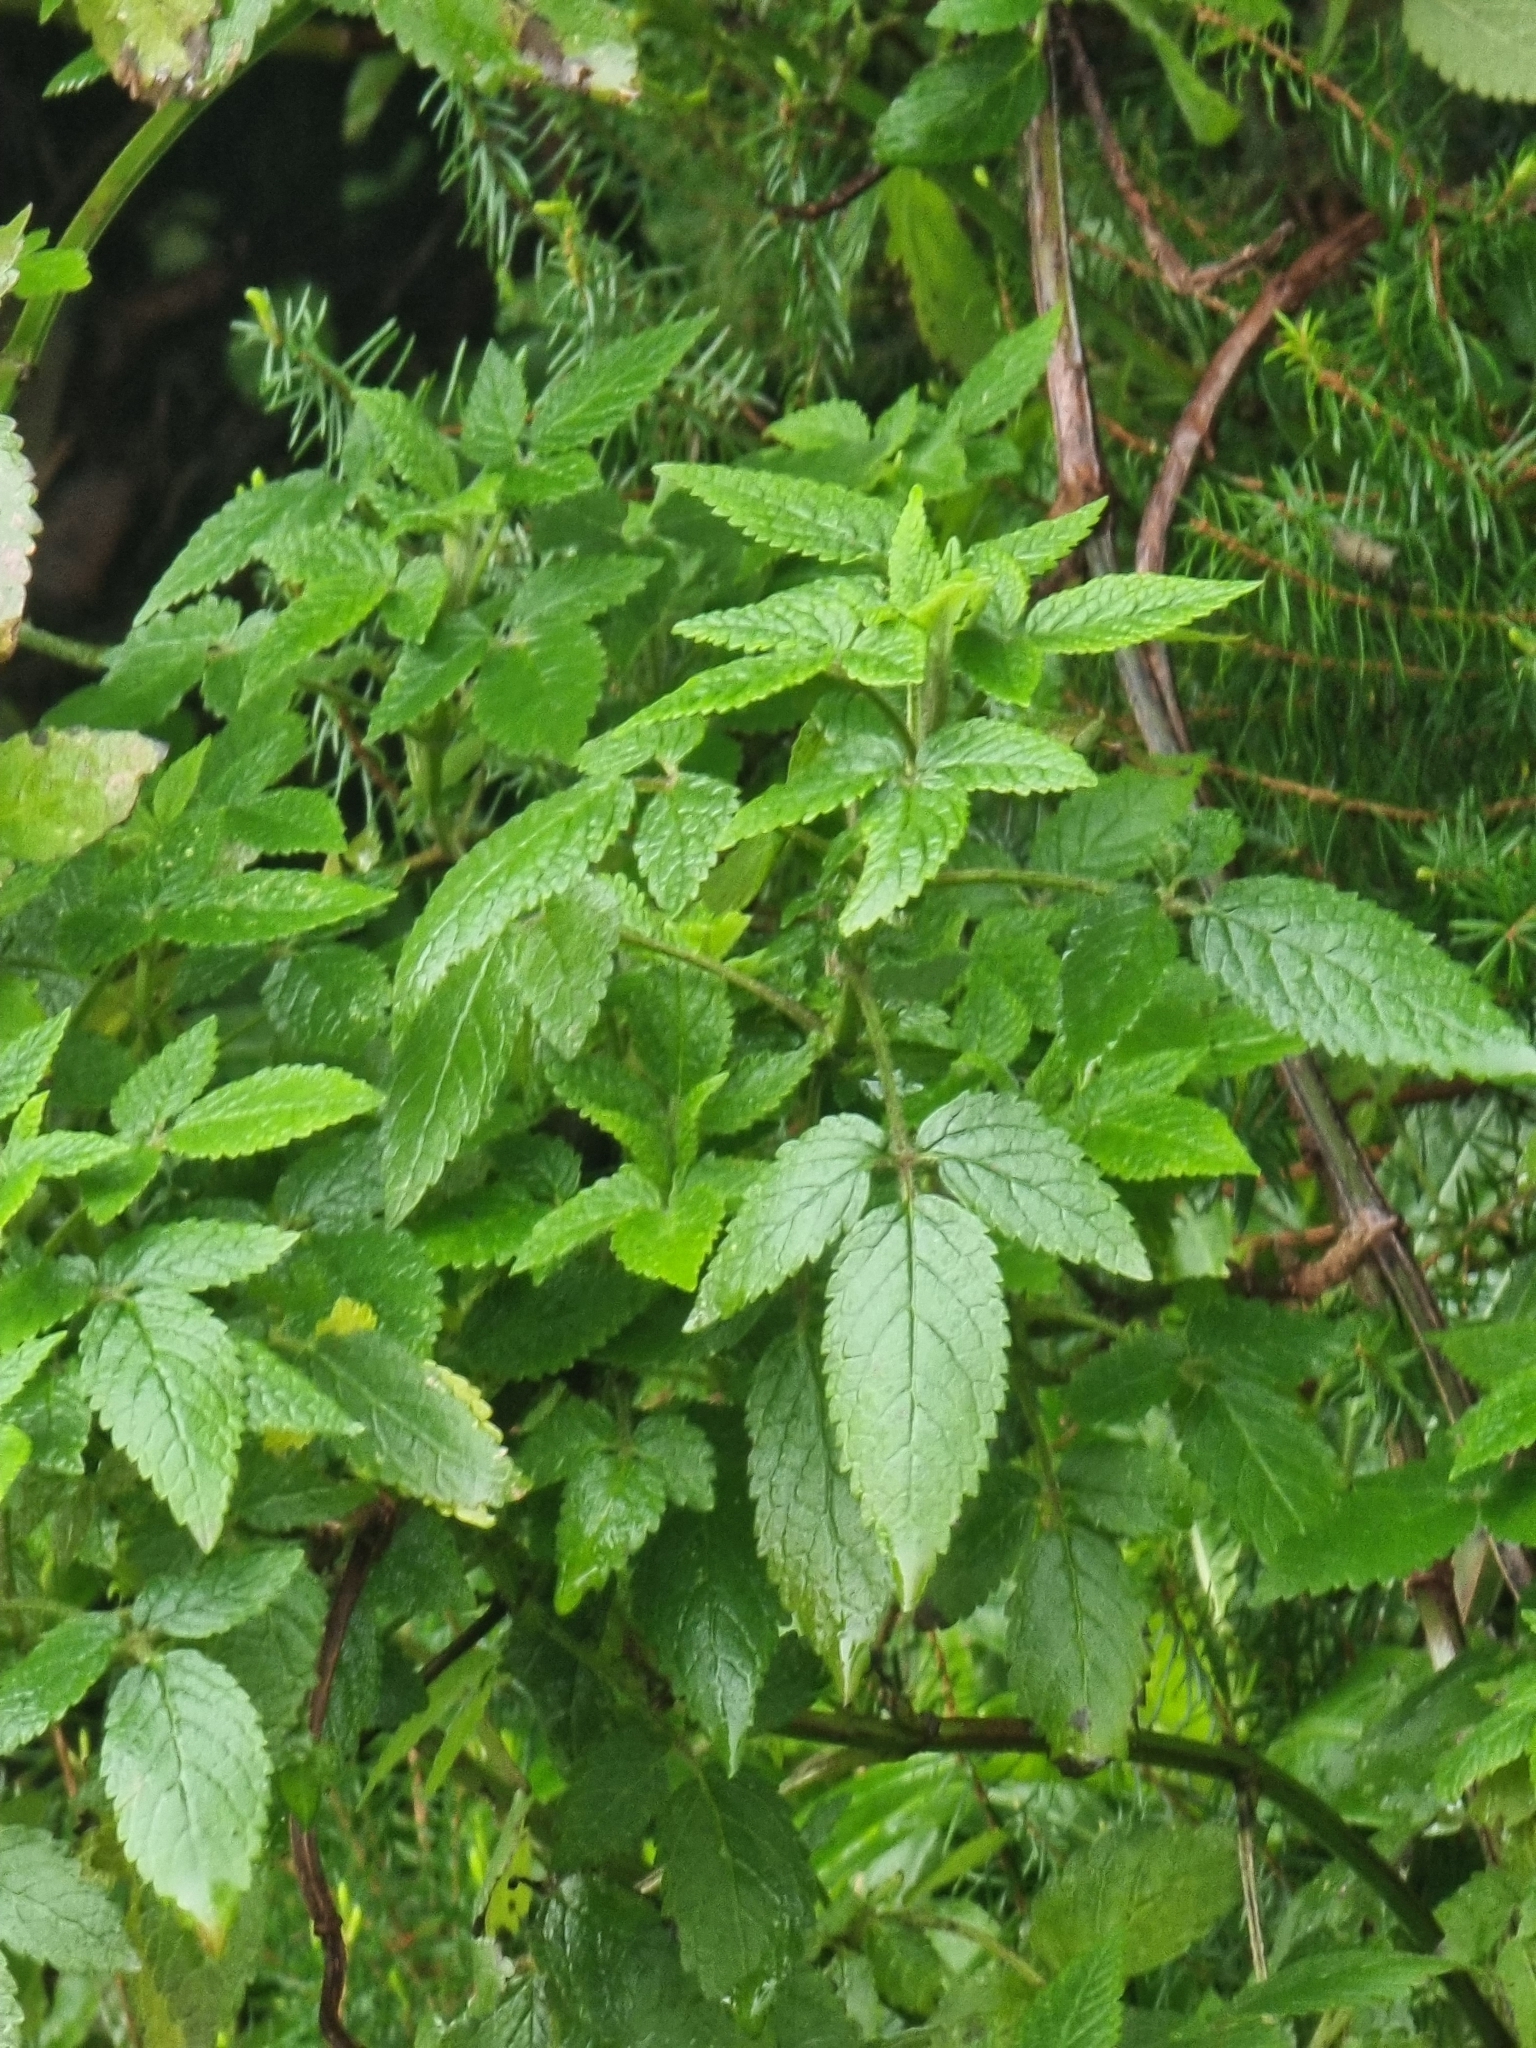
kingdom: Plantae
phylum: Tracheophyta
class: Magnoliopsida
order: Lamiales
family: Lamiaceae
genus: Cedronella
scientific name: Cedronella canariensis
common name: Canary islands balm
